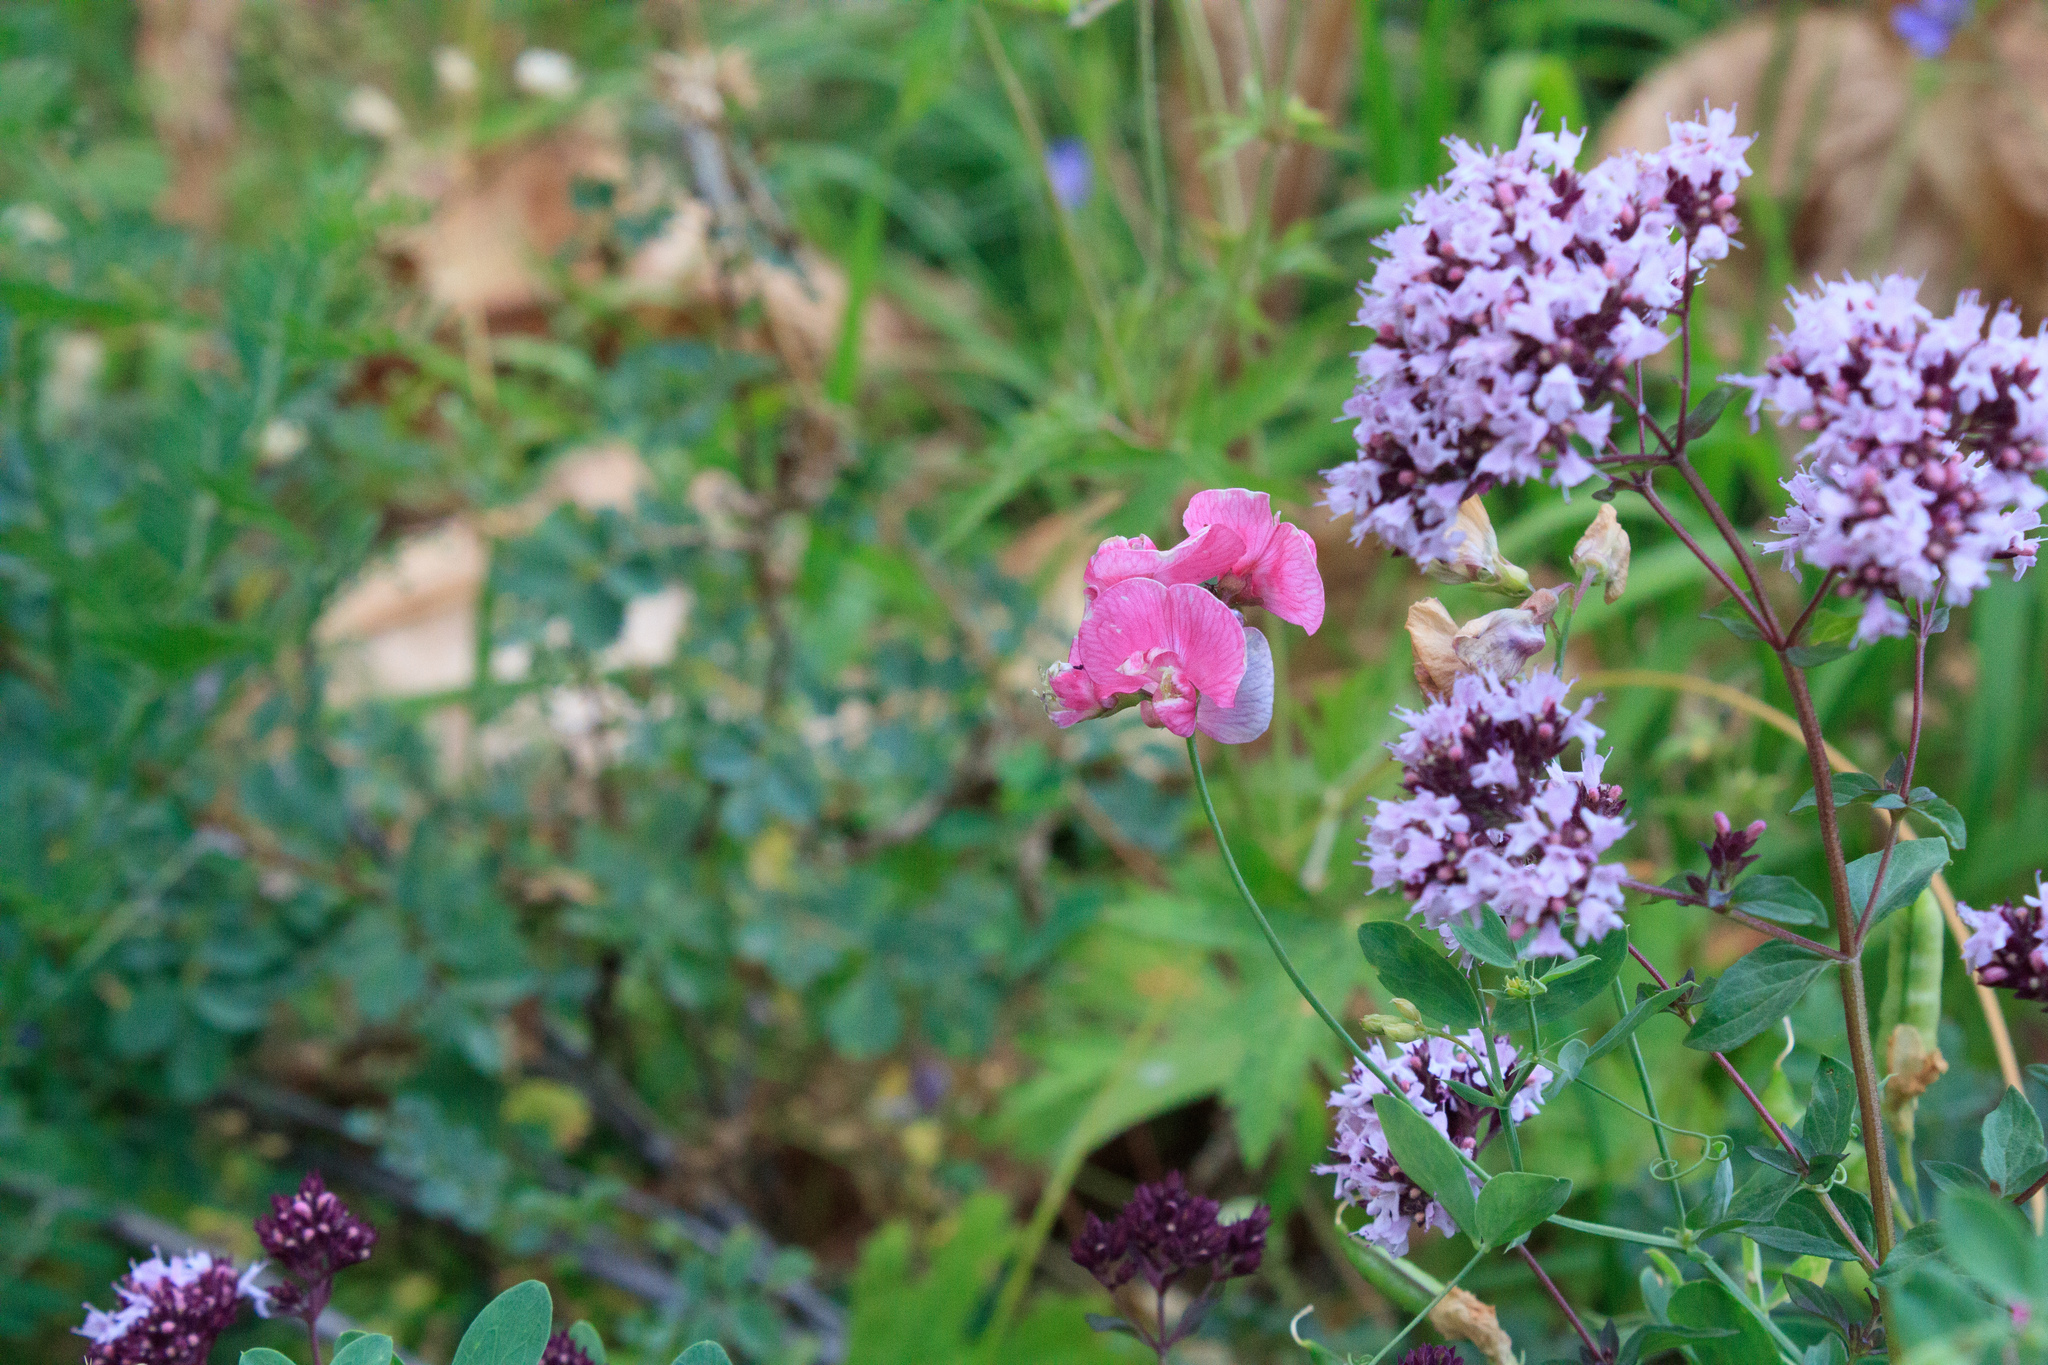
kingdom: Plantae
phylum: Tracheophyta
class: Magnoliopsida
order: Fabales
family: Fabaceae
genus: Lathyrus
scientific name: Lathyrus tuberosus
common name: Tuberous pea
